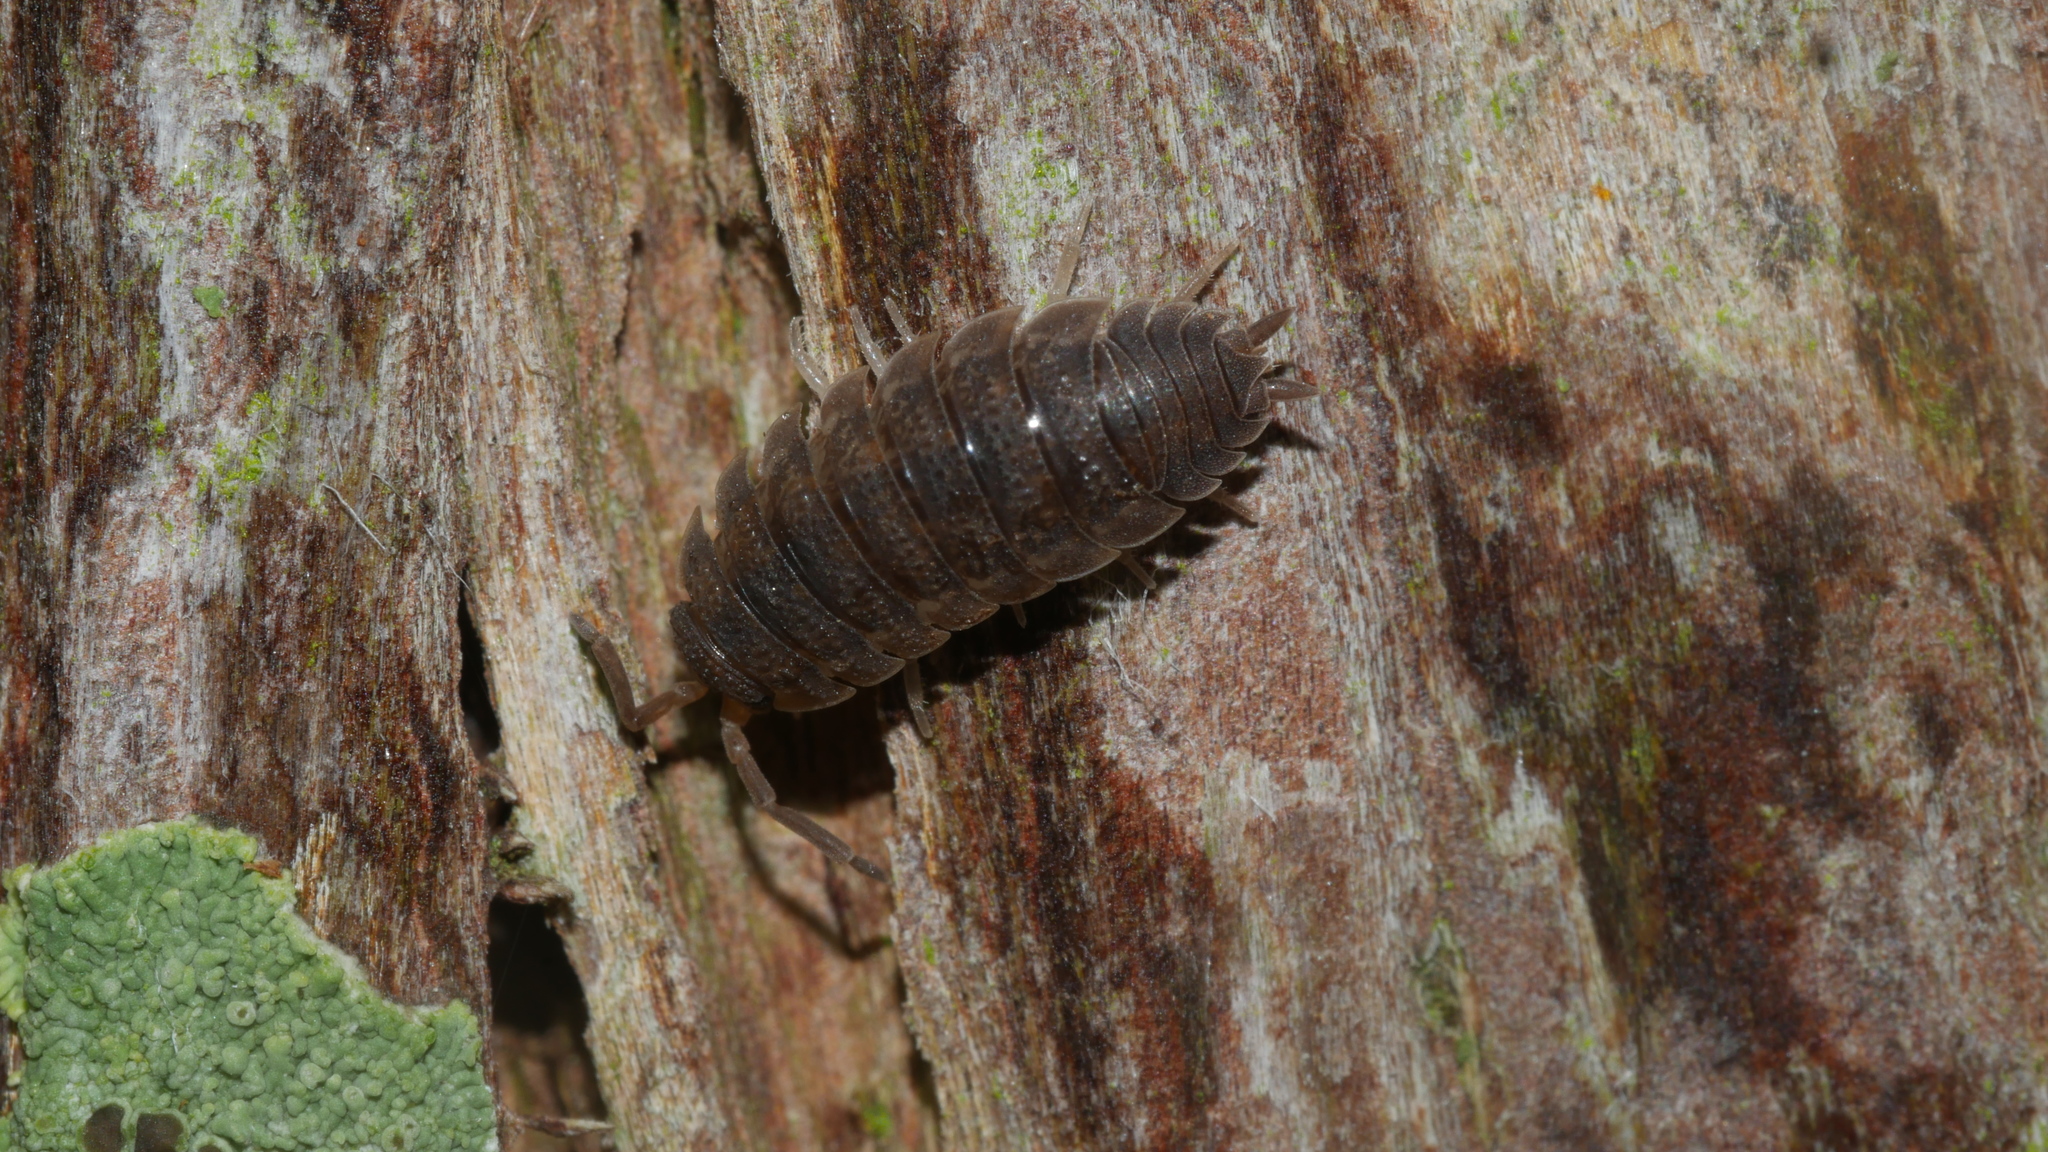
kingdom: Animalia
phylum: Arthropoda
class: Malacostraca
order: Isopoda
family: Porcellionidae
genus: Porcellio
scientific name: Porcellio scaber
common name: Common rough woodlouse
